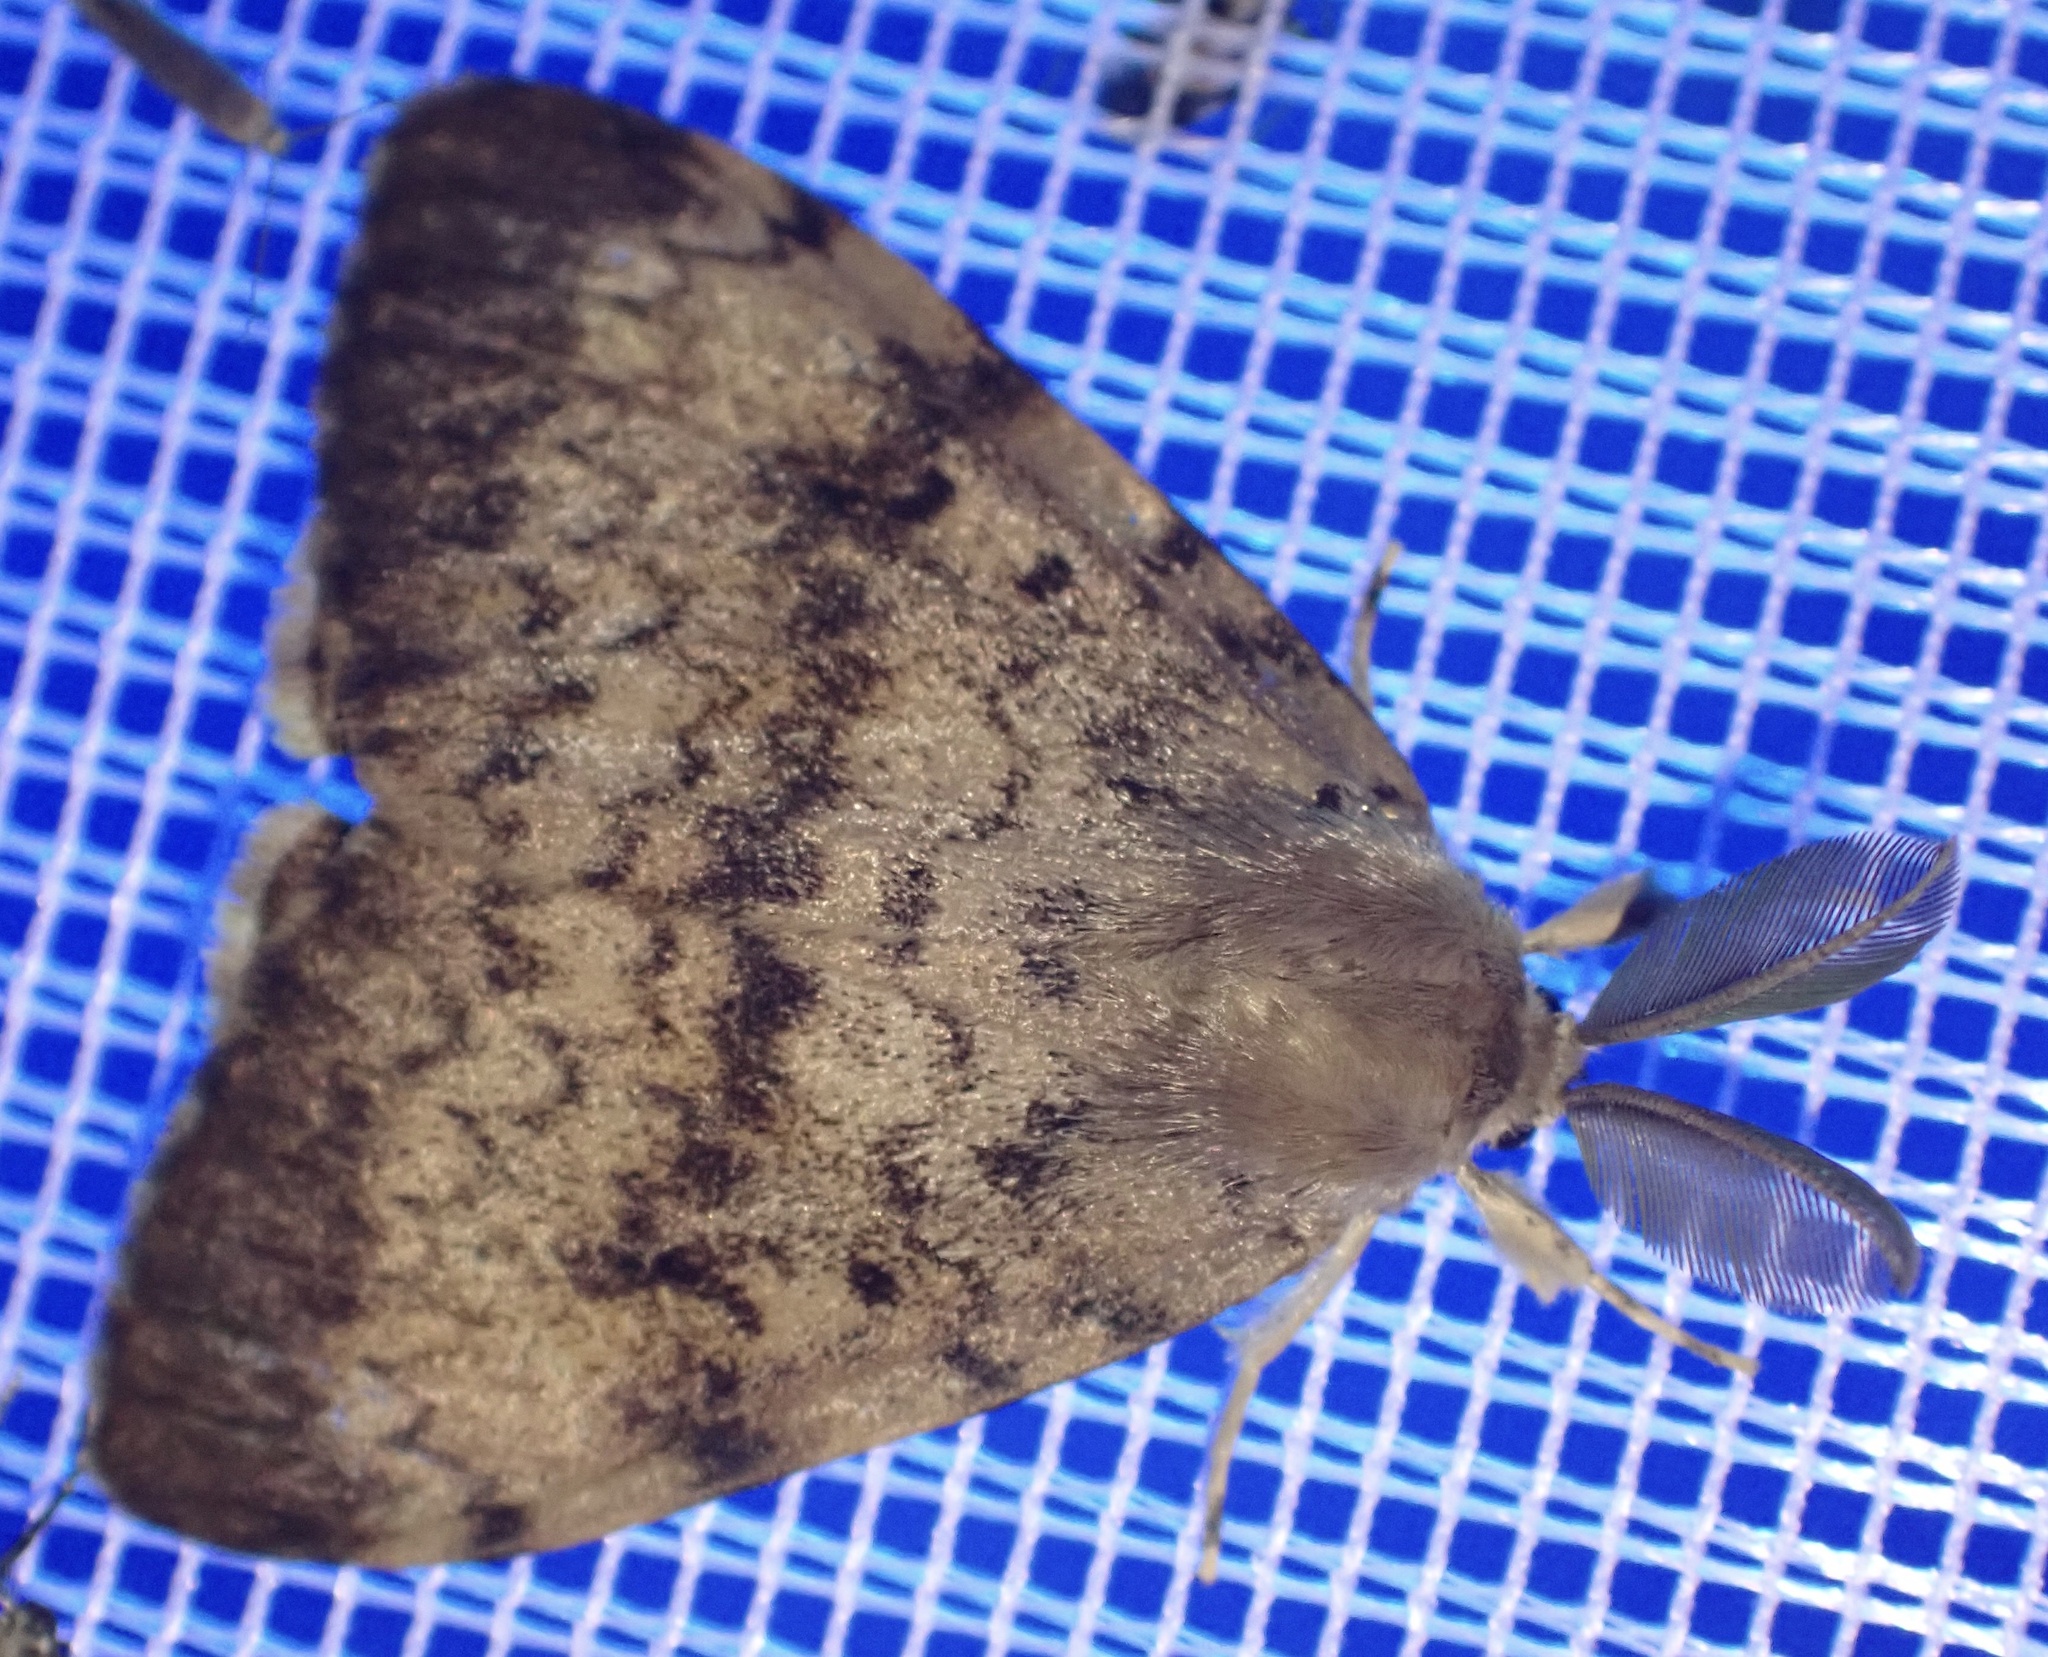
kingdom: Animalia
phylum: Arthropoda
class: Insecta
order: Lepidoptera
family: Erebidae
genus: Lymantria
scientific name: Lymantria dispar
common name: Gypsy moth
